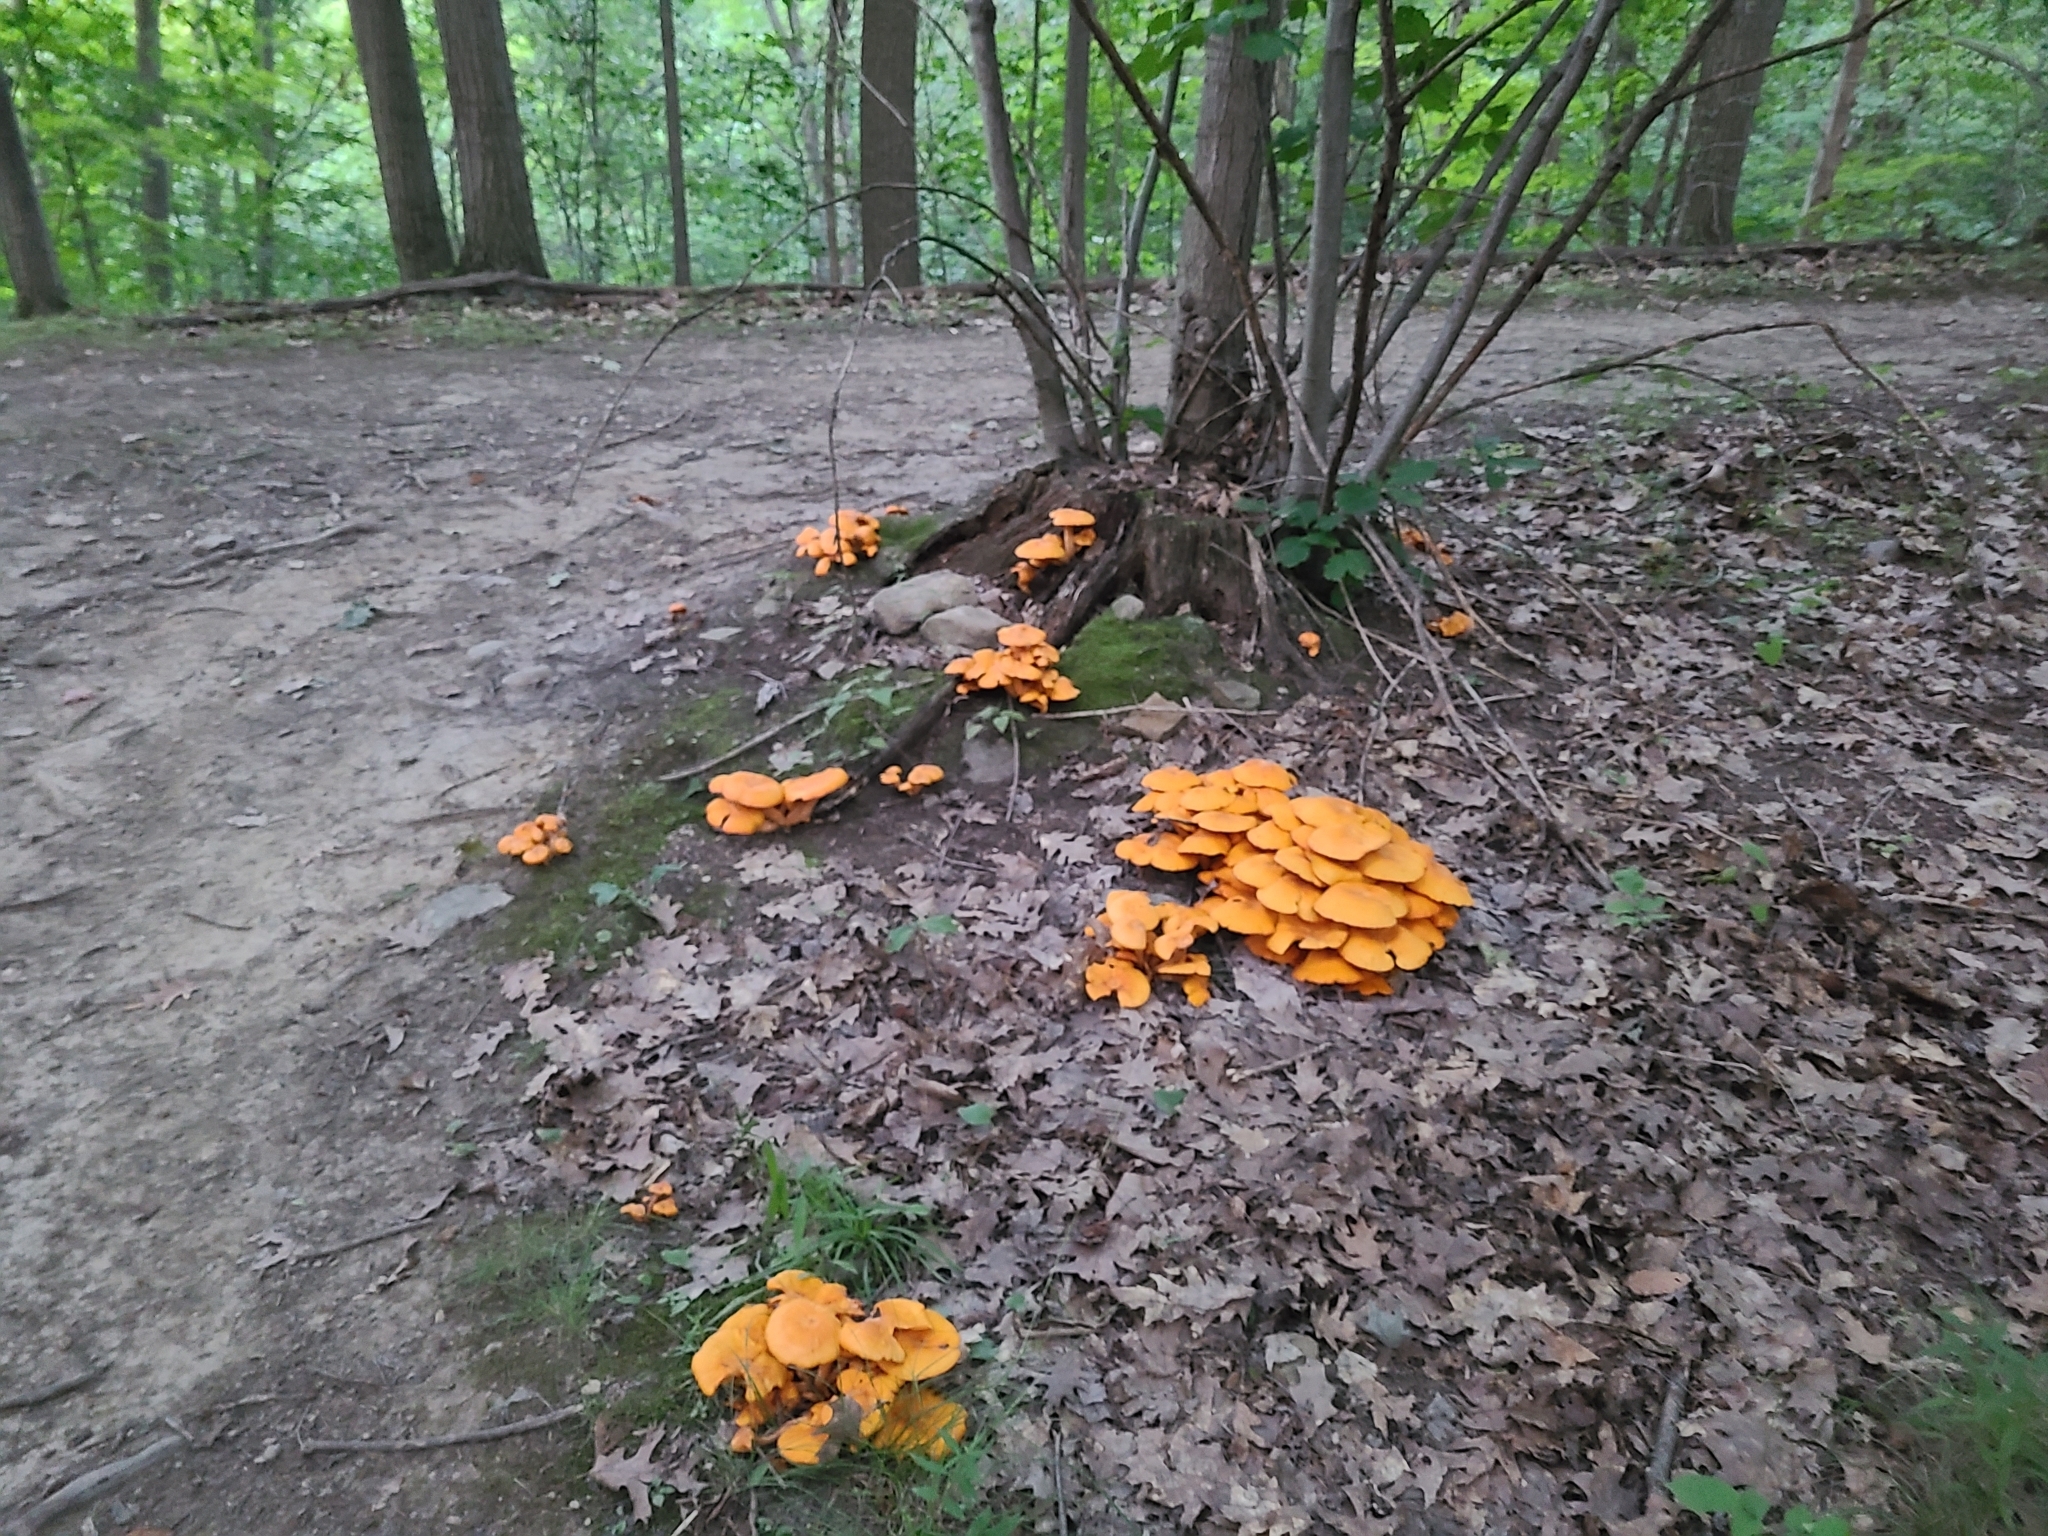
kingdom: Fungi
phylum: Basidiomycota
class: Agaricomycetes
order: Agaricales
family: Omphalotaceae
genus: Omphalotus
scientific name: Omphalotus illudens
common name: Jack o lantern
